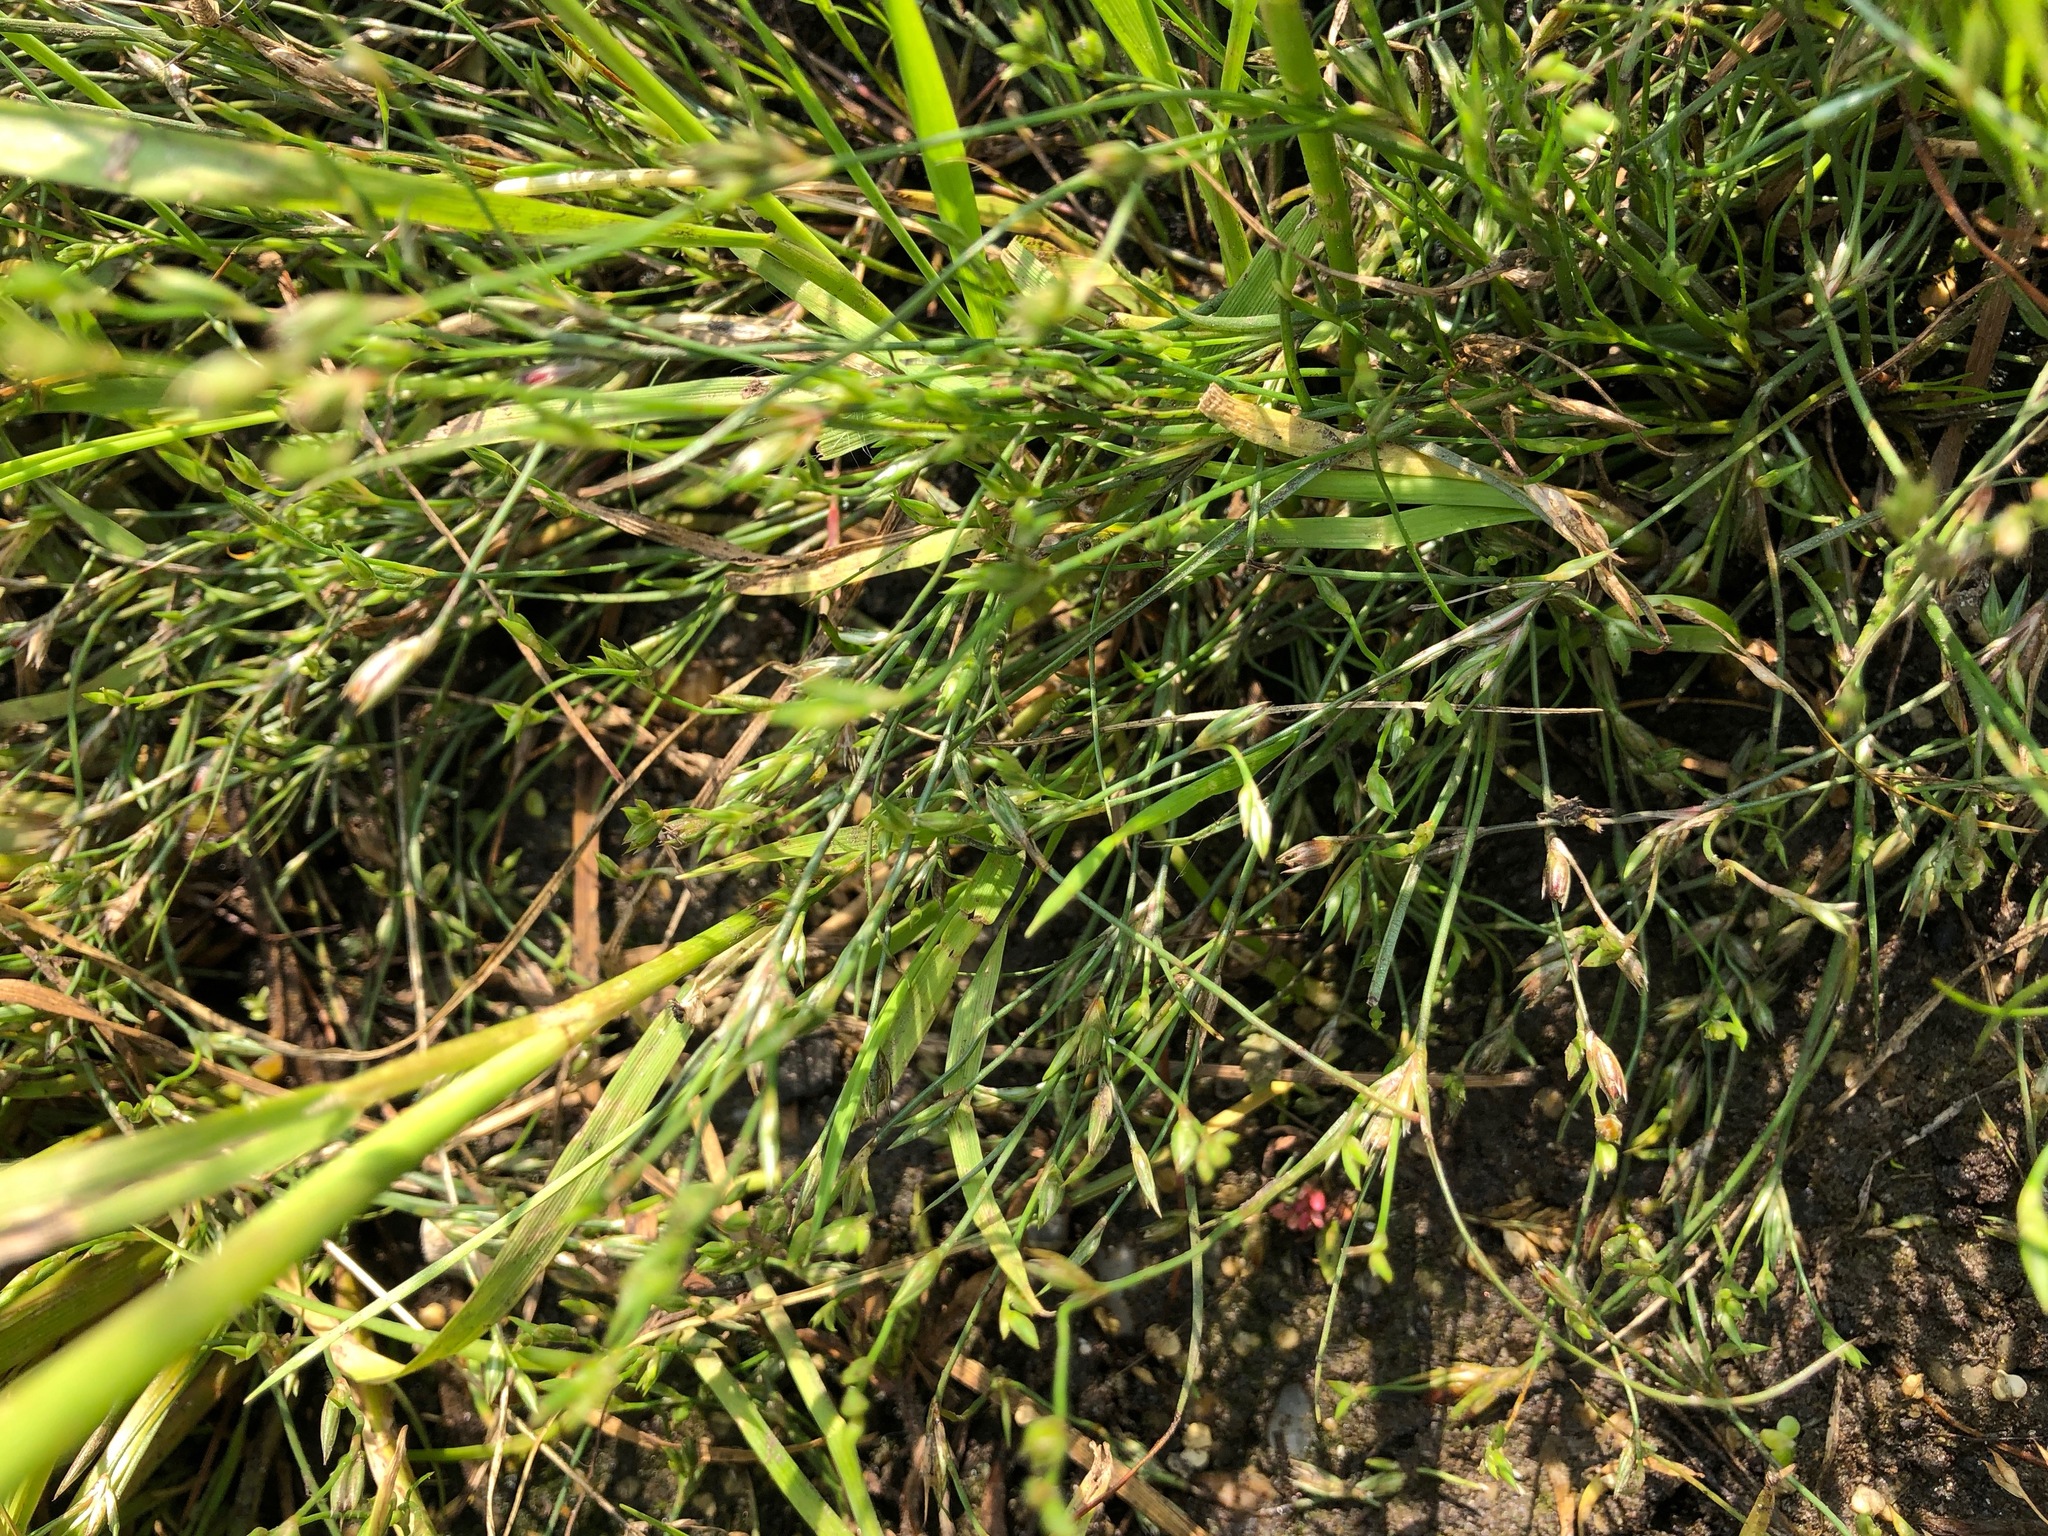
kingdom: Plantae
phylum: Tracheophyta
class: Liliopsida
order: Poales
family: Juncaceae
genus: Juncus
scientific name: Juncus bufonius
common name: Toad rush
